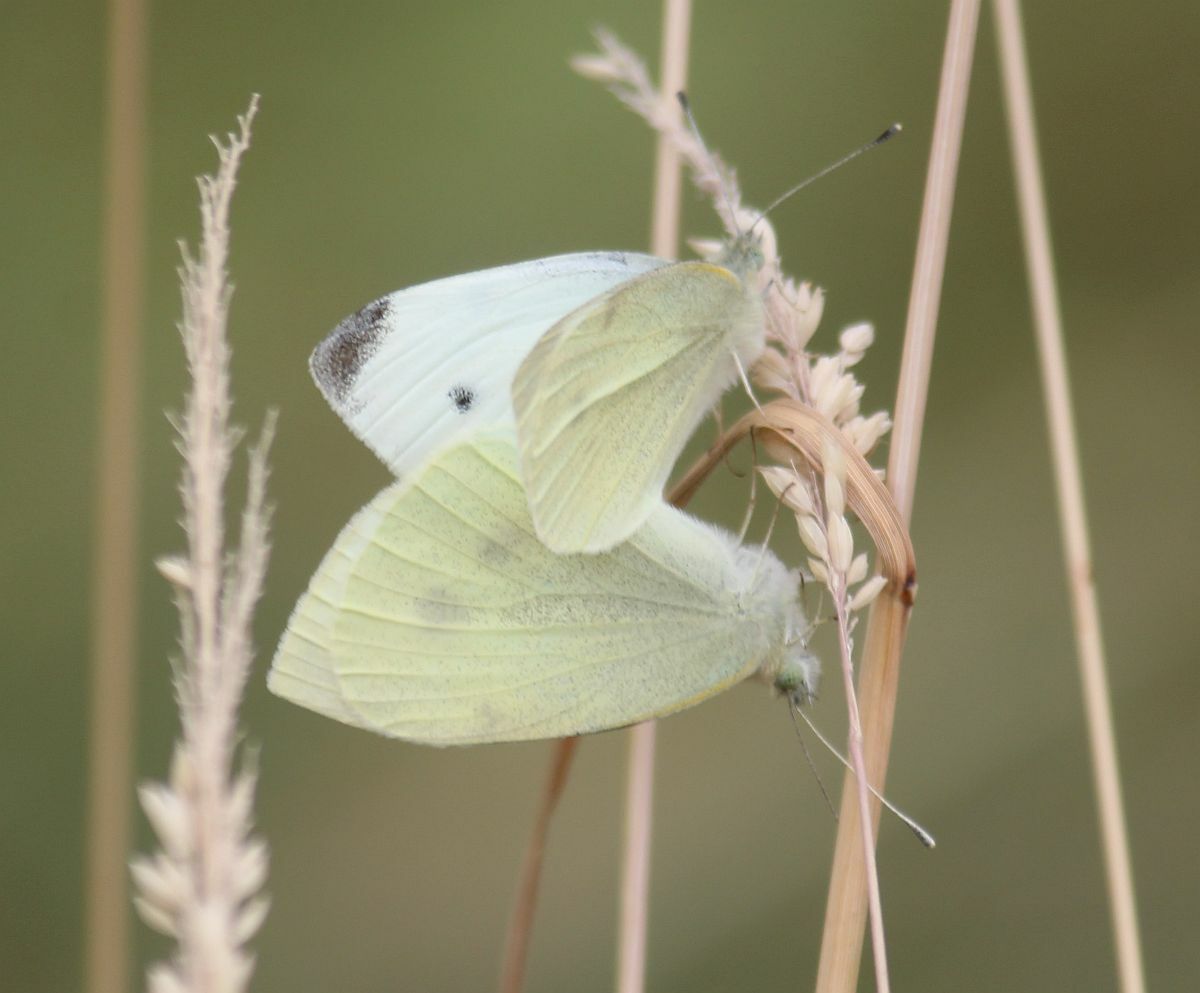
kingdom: Animalia
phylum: Arthropoda
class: Insecta
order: Lepidoptera
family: Pieridae
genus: Pieris
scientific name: Pieris rapae
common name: Small white
